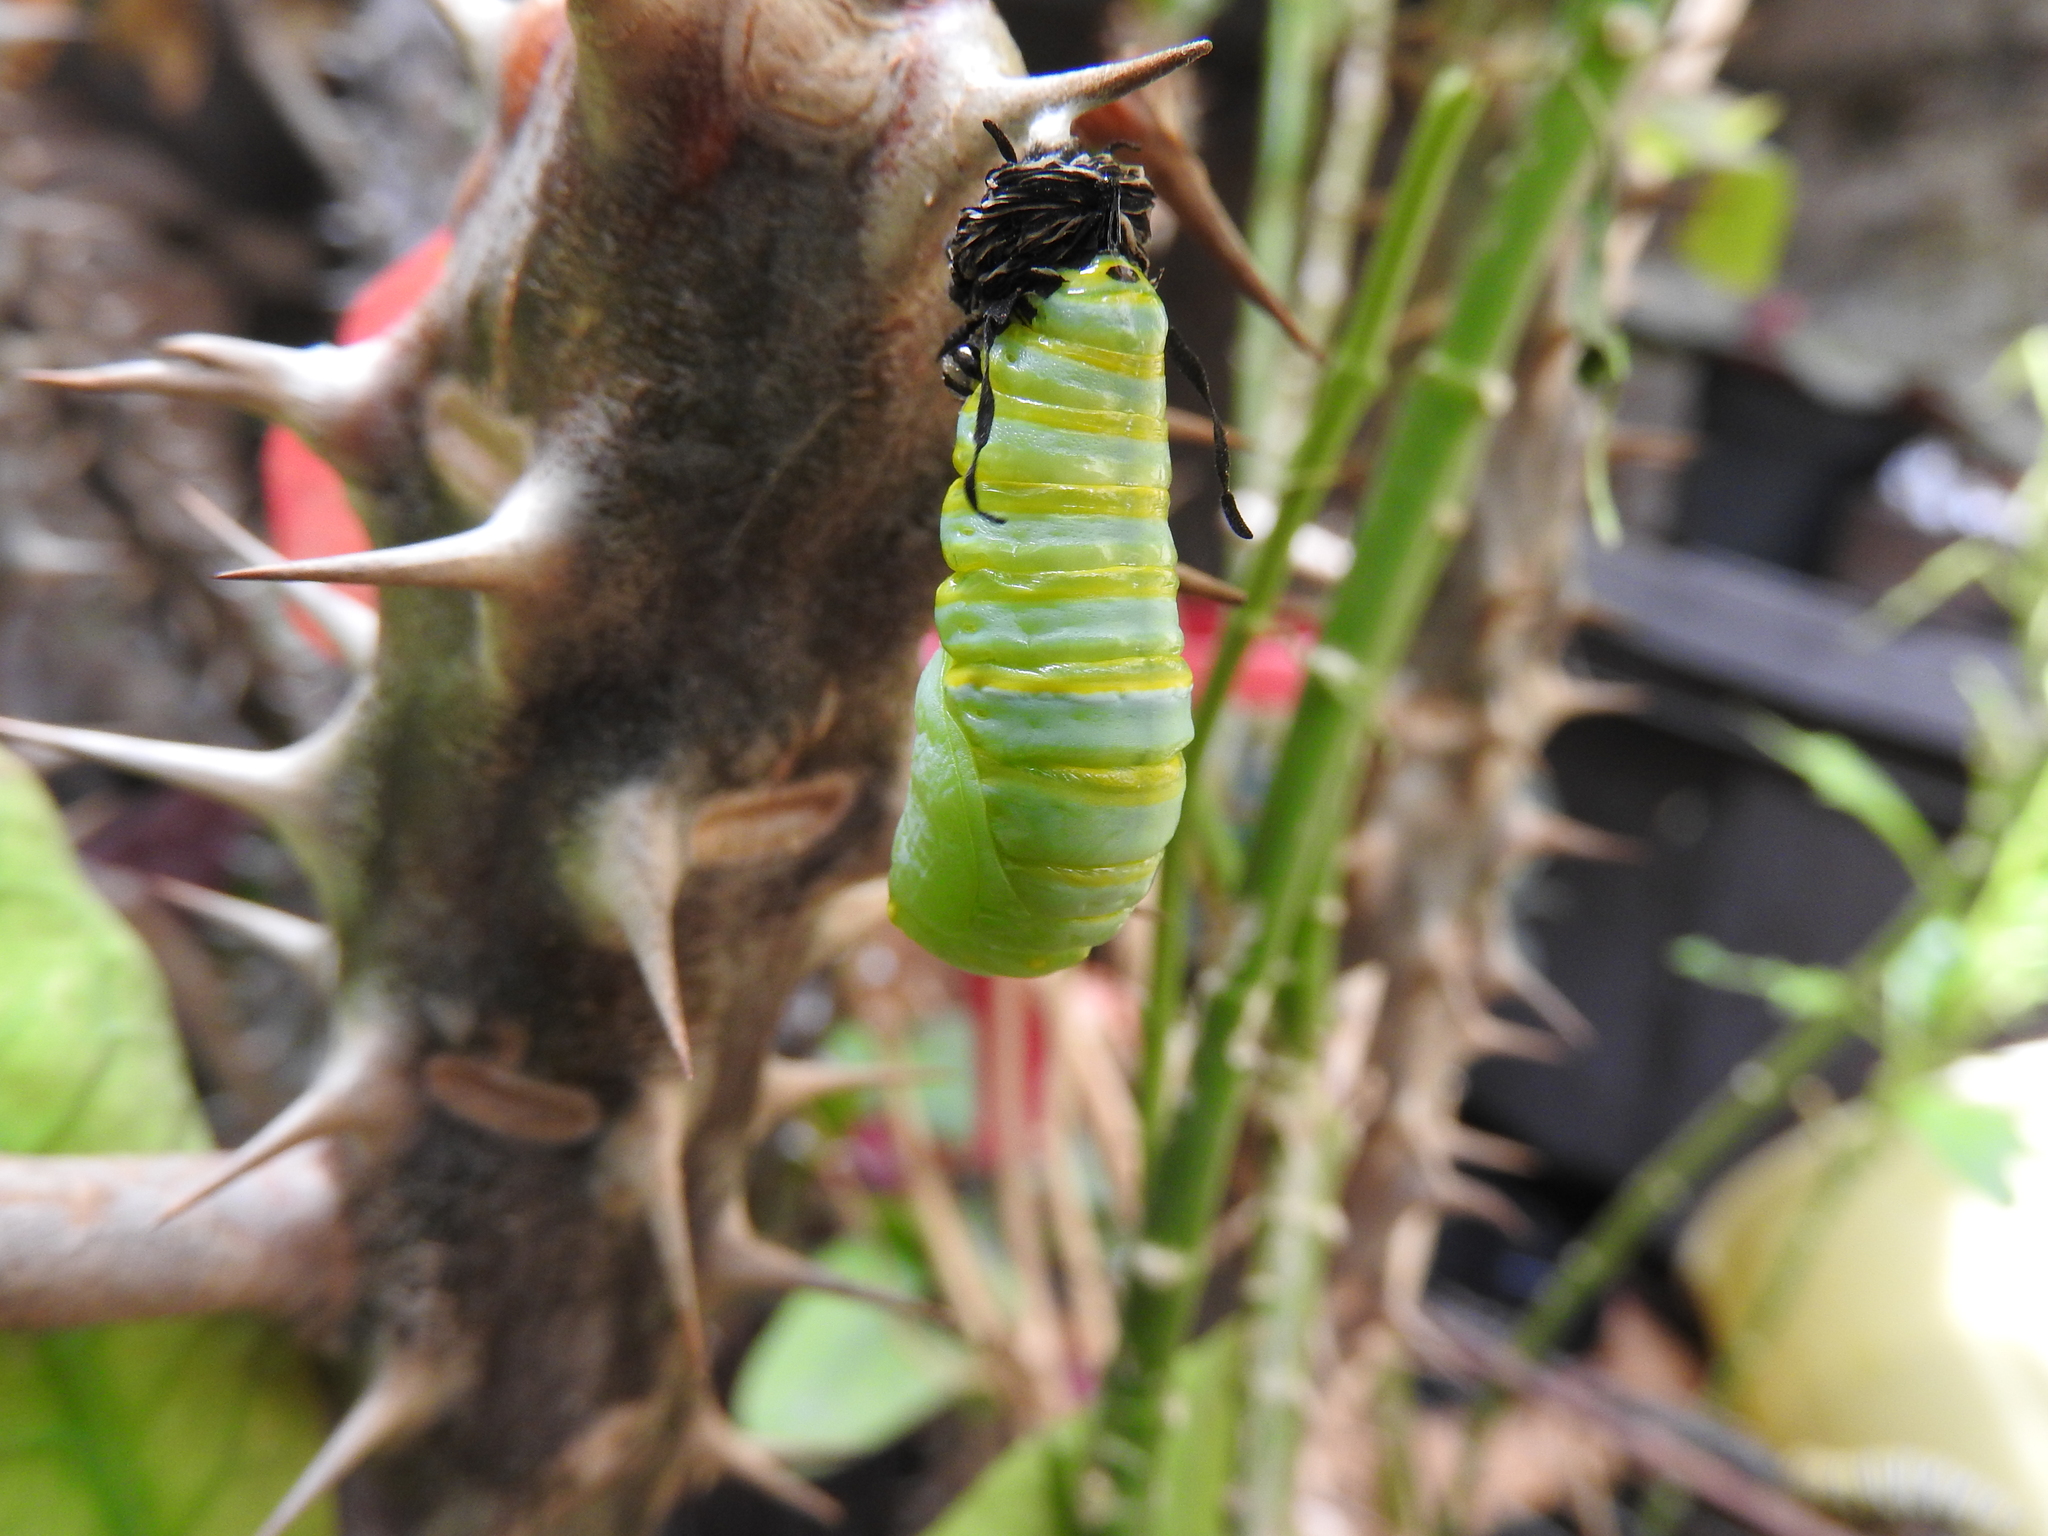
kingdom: Animalia
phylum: Arthropoda
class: Insecta
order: Lepidoptera
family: Nymphalidae
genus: Danaus
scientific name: Danaus plexippus
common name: Monarch
